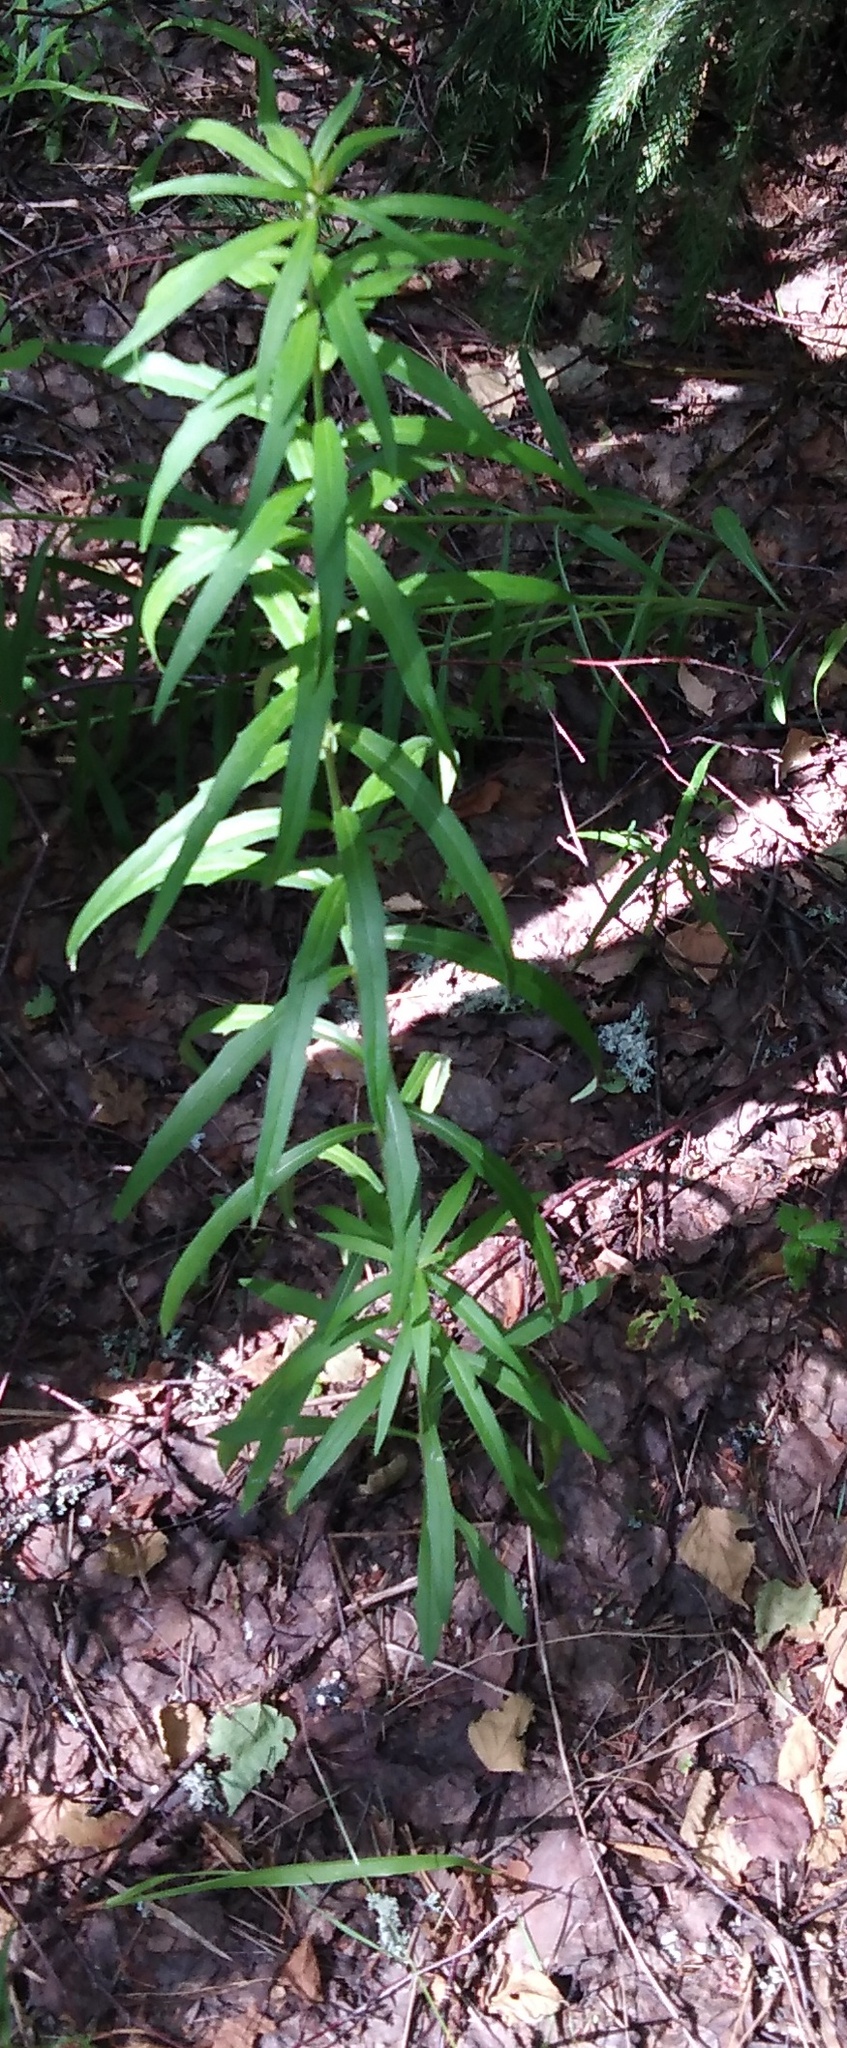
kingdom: Plantae
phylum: Tracheophyta
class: Magnoliopsida
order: Asterales
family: Asteraceae
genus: Hieracium
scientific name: Hieracium umbellatum
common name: Northern hawkweed
